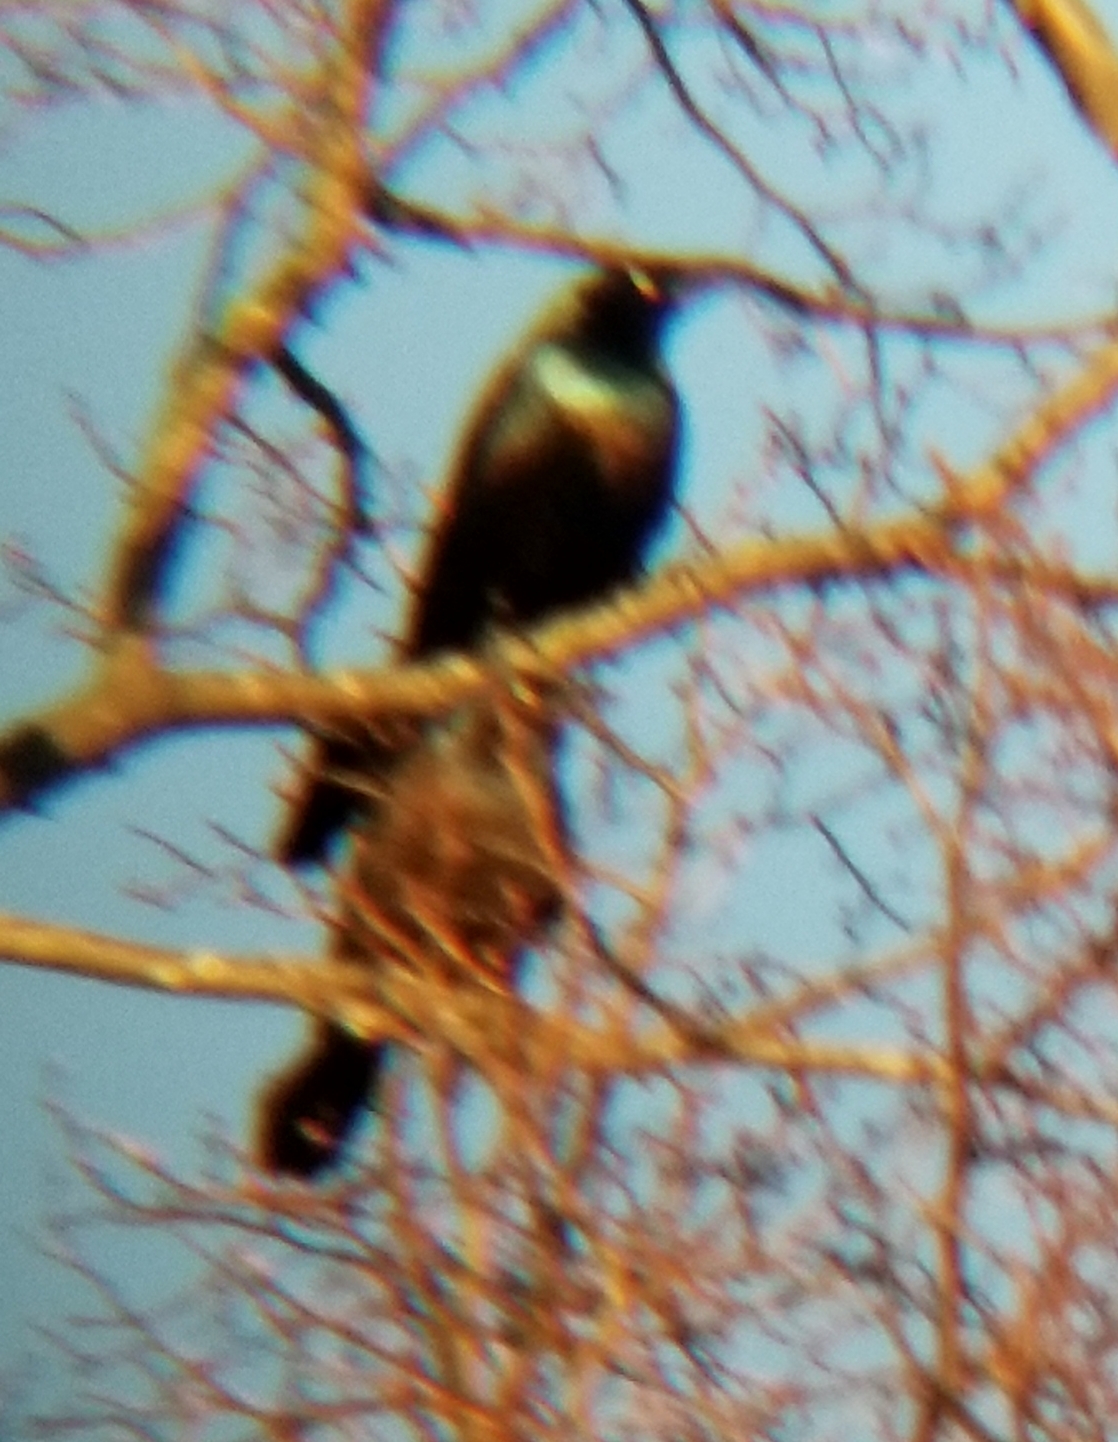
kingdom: Animalia
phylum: Chordata
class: Aves
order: Passeriformes
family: Icteridae
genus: Quiscalus
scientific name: Quiscalus quiscula
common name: Common grackle
